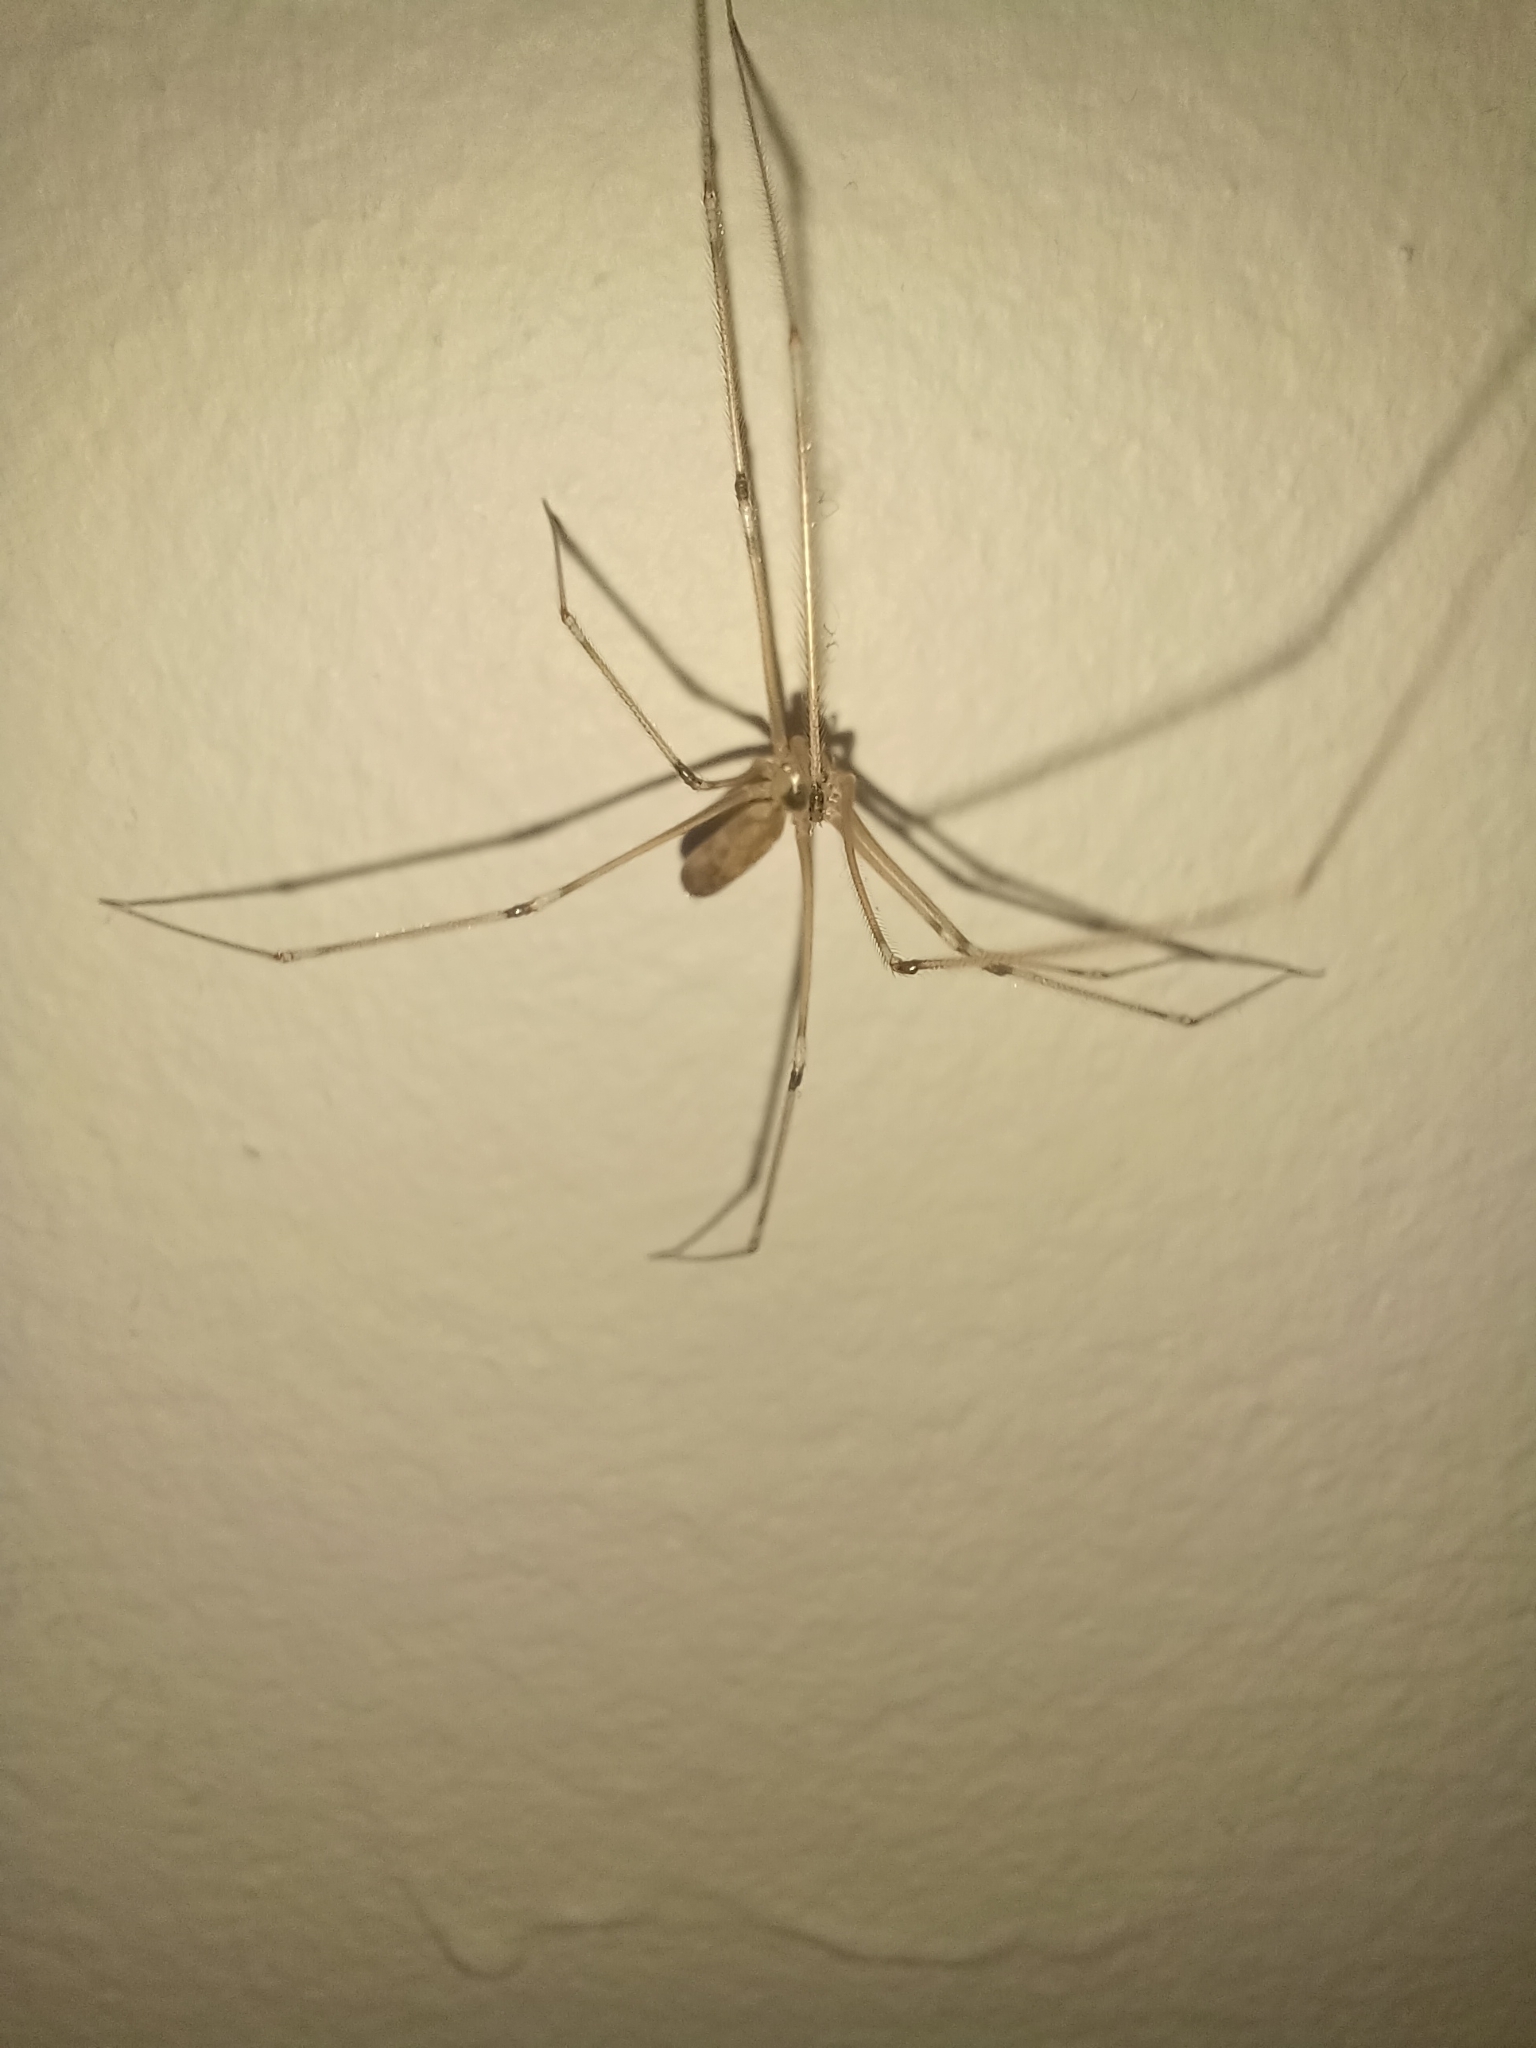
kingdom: Animalia
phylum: Arthropoda
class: Arachnida
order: Araneae
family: Pholcidae
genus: Pholcus
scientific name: Pholcus phalangioides
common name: Longbodied cellar spider
